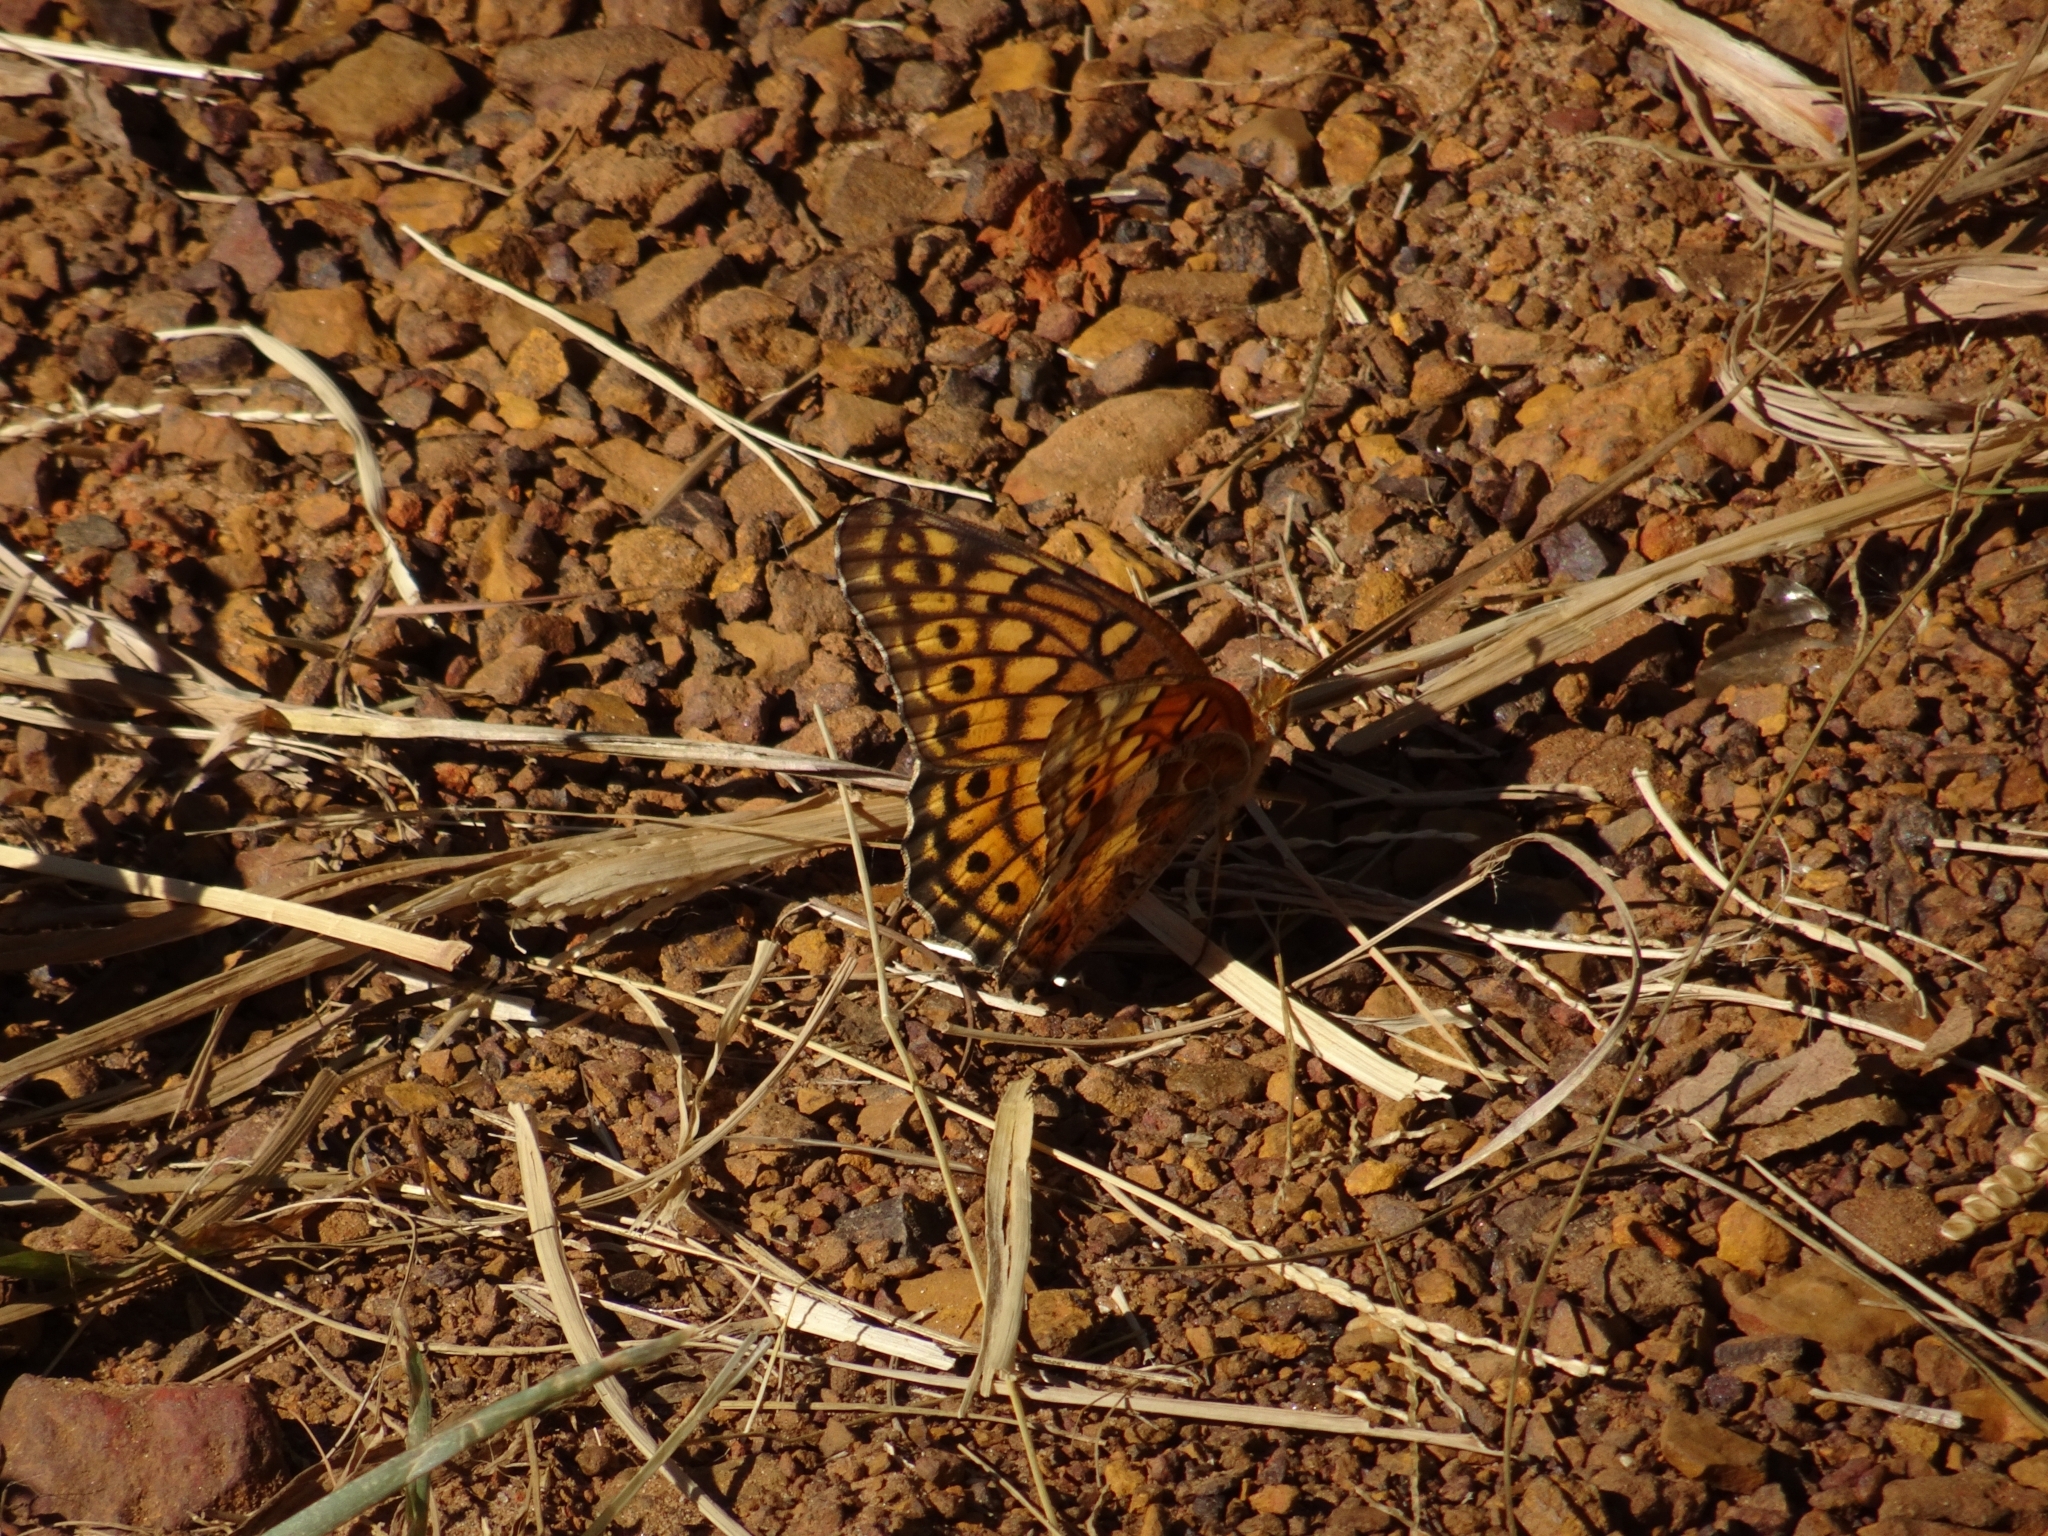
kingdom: Animalia
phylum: Arthropoda
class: Insecta
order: Lepidoptera
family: Nymphalidae
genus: Euptoieta
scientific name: Euptoieta claudia
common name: Variegated fritillary
